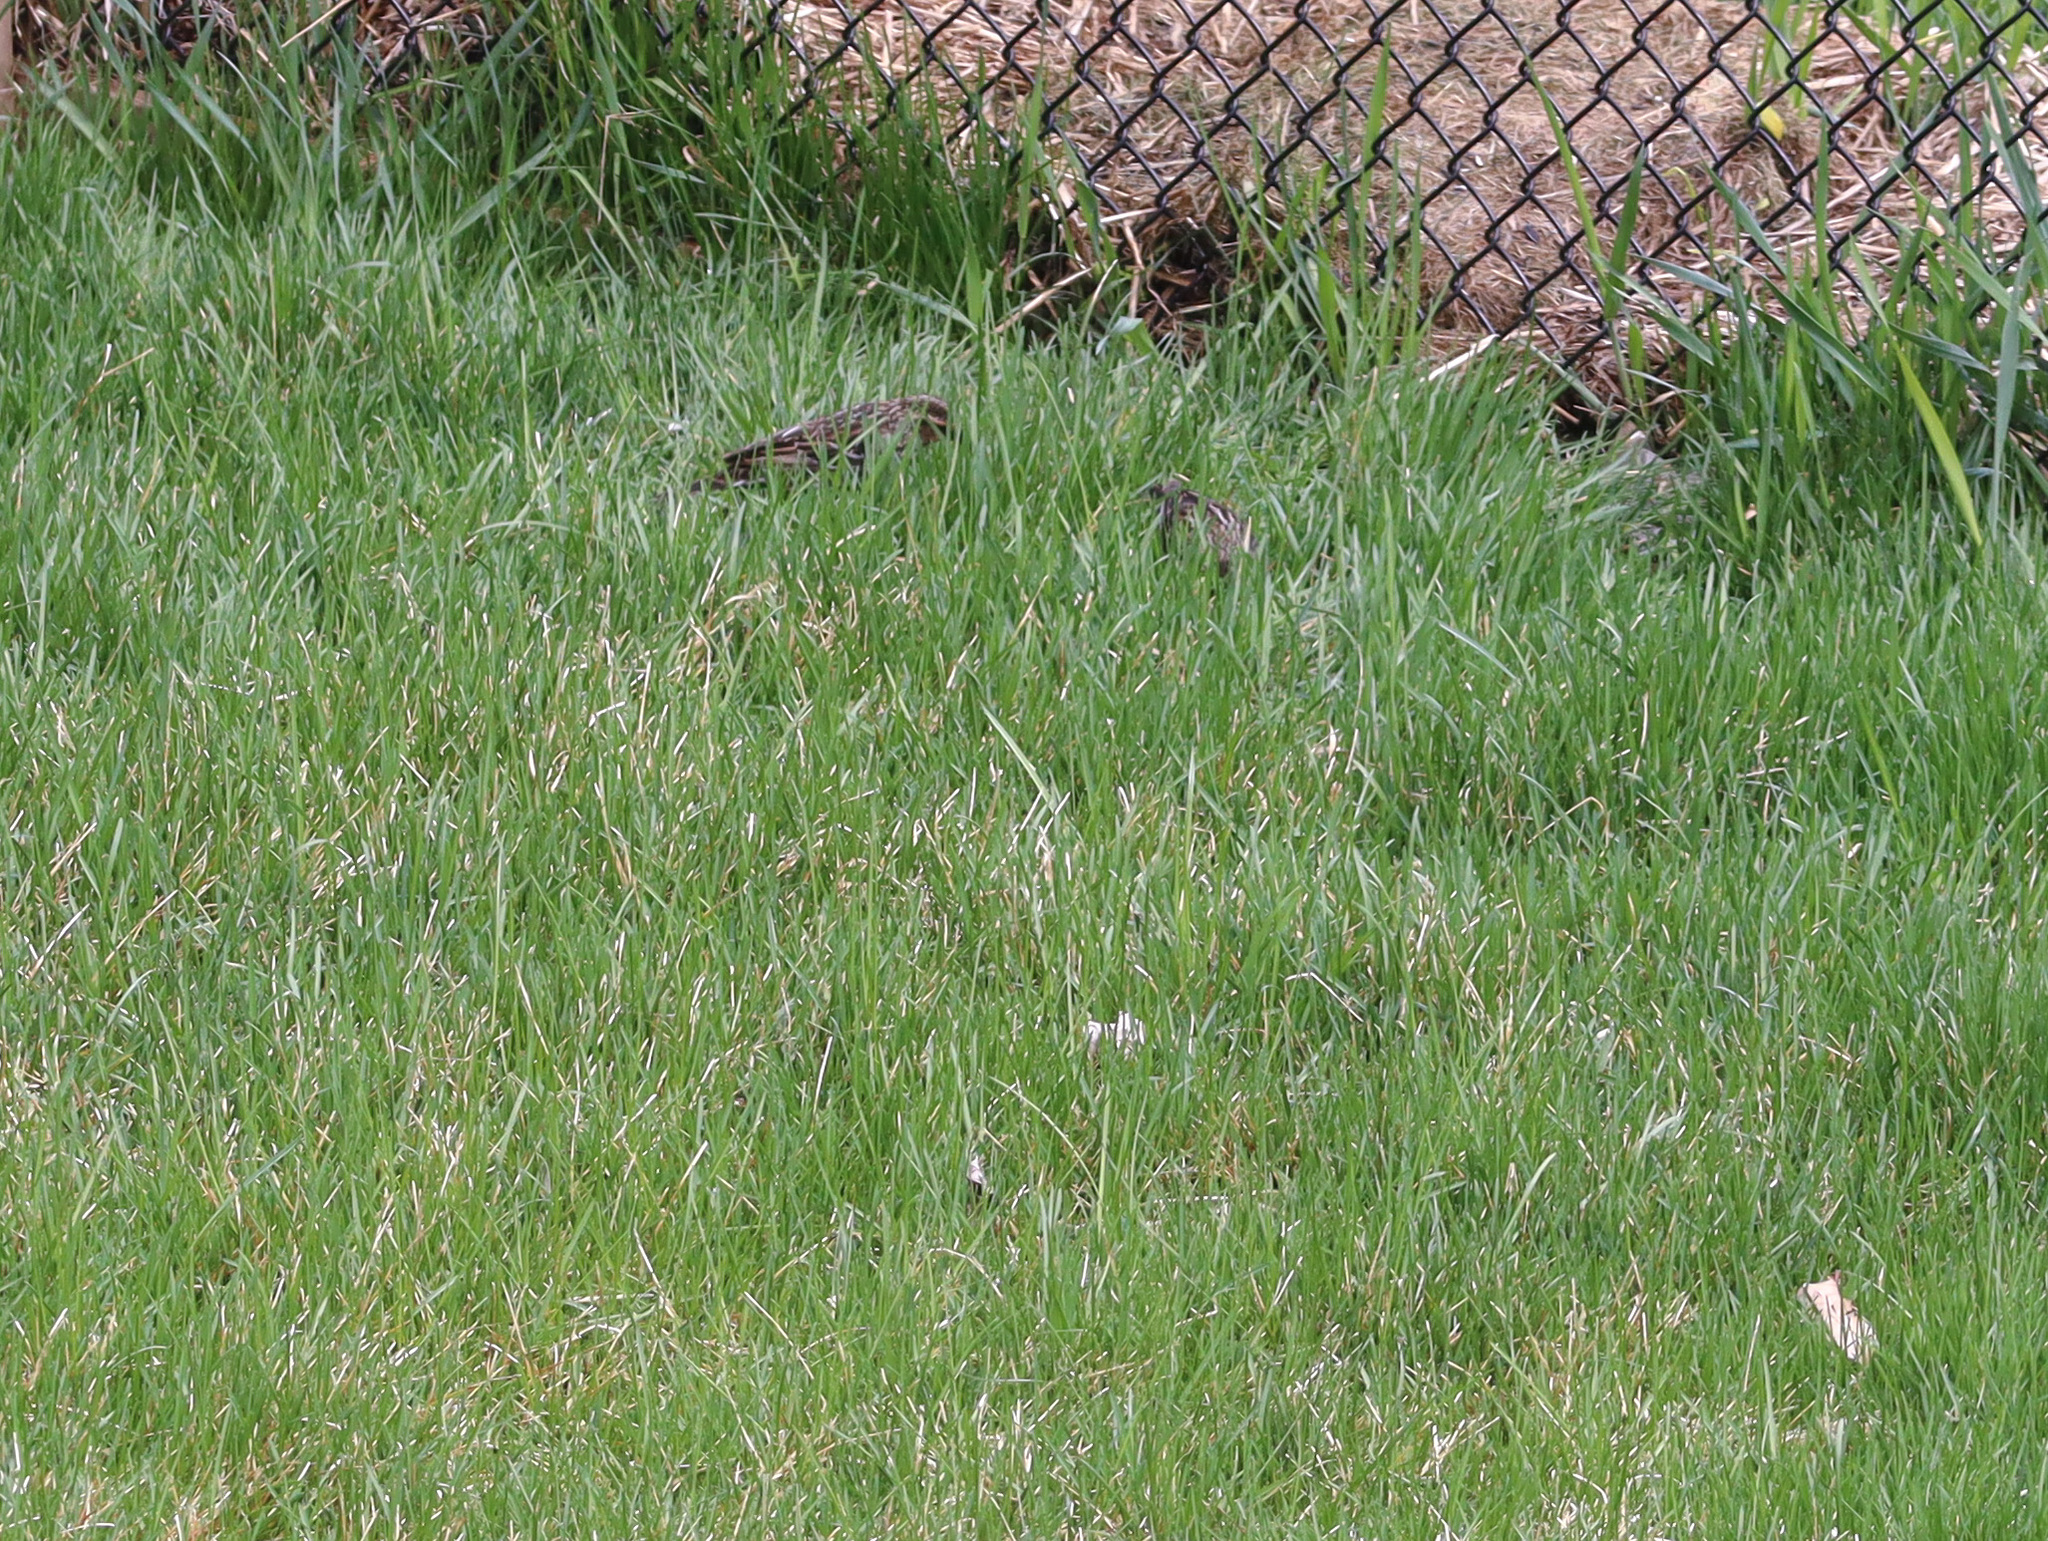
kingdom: Animalia
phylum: Chordata
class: Aves
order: Passeriformes
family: Icteridae
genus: Agelaius
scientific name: Agelaius phoeniceus
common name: Red-winged blackbird
